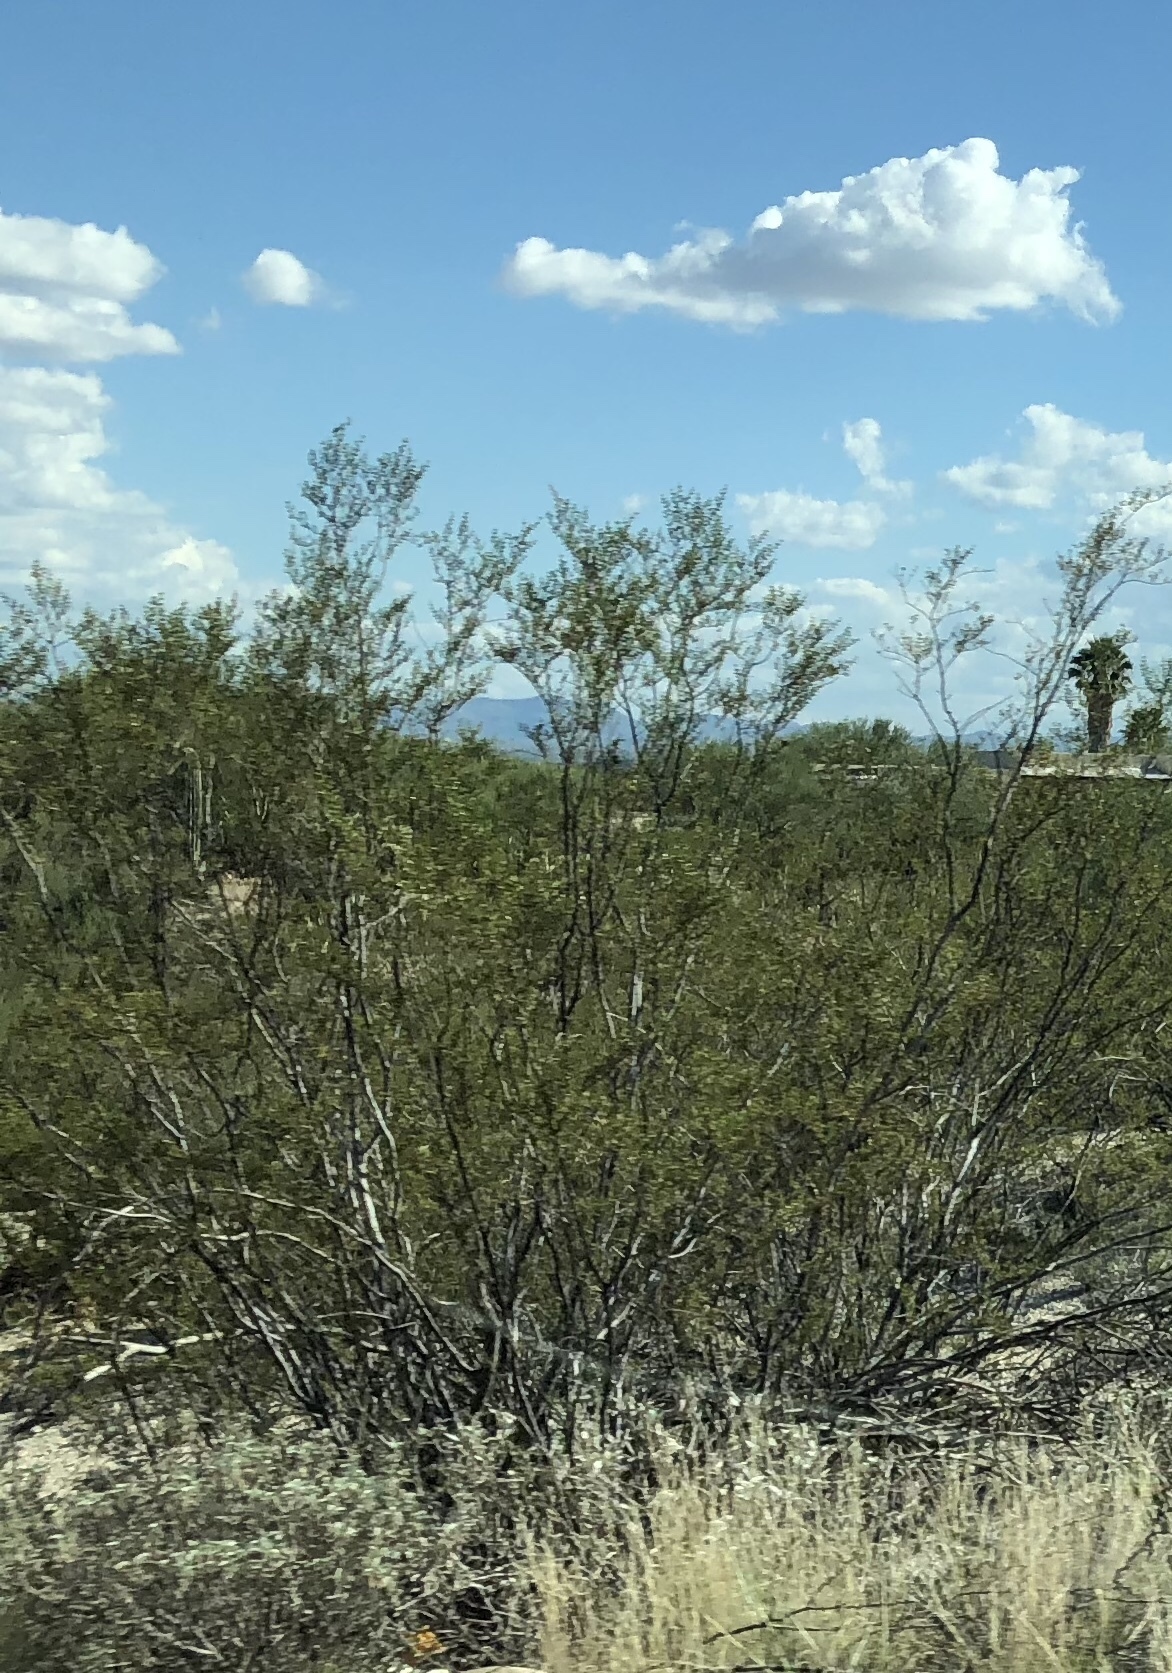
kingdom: Plantae
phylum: Tracheophyta
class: Magnoliopsida
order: Zygophyllales
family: Zygophyllaceae
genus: Larrea
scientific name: Larrea tridentata
